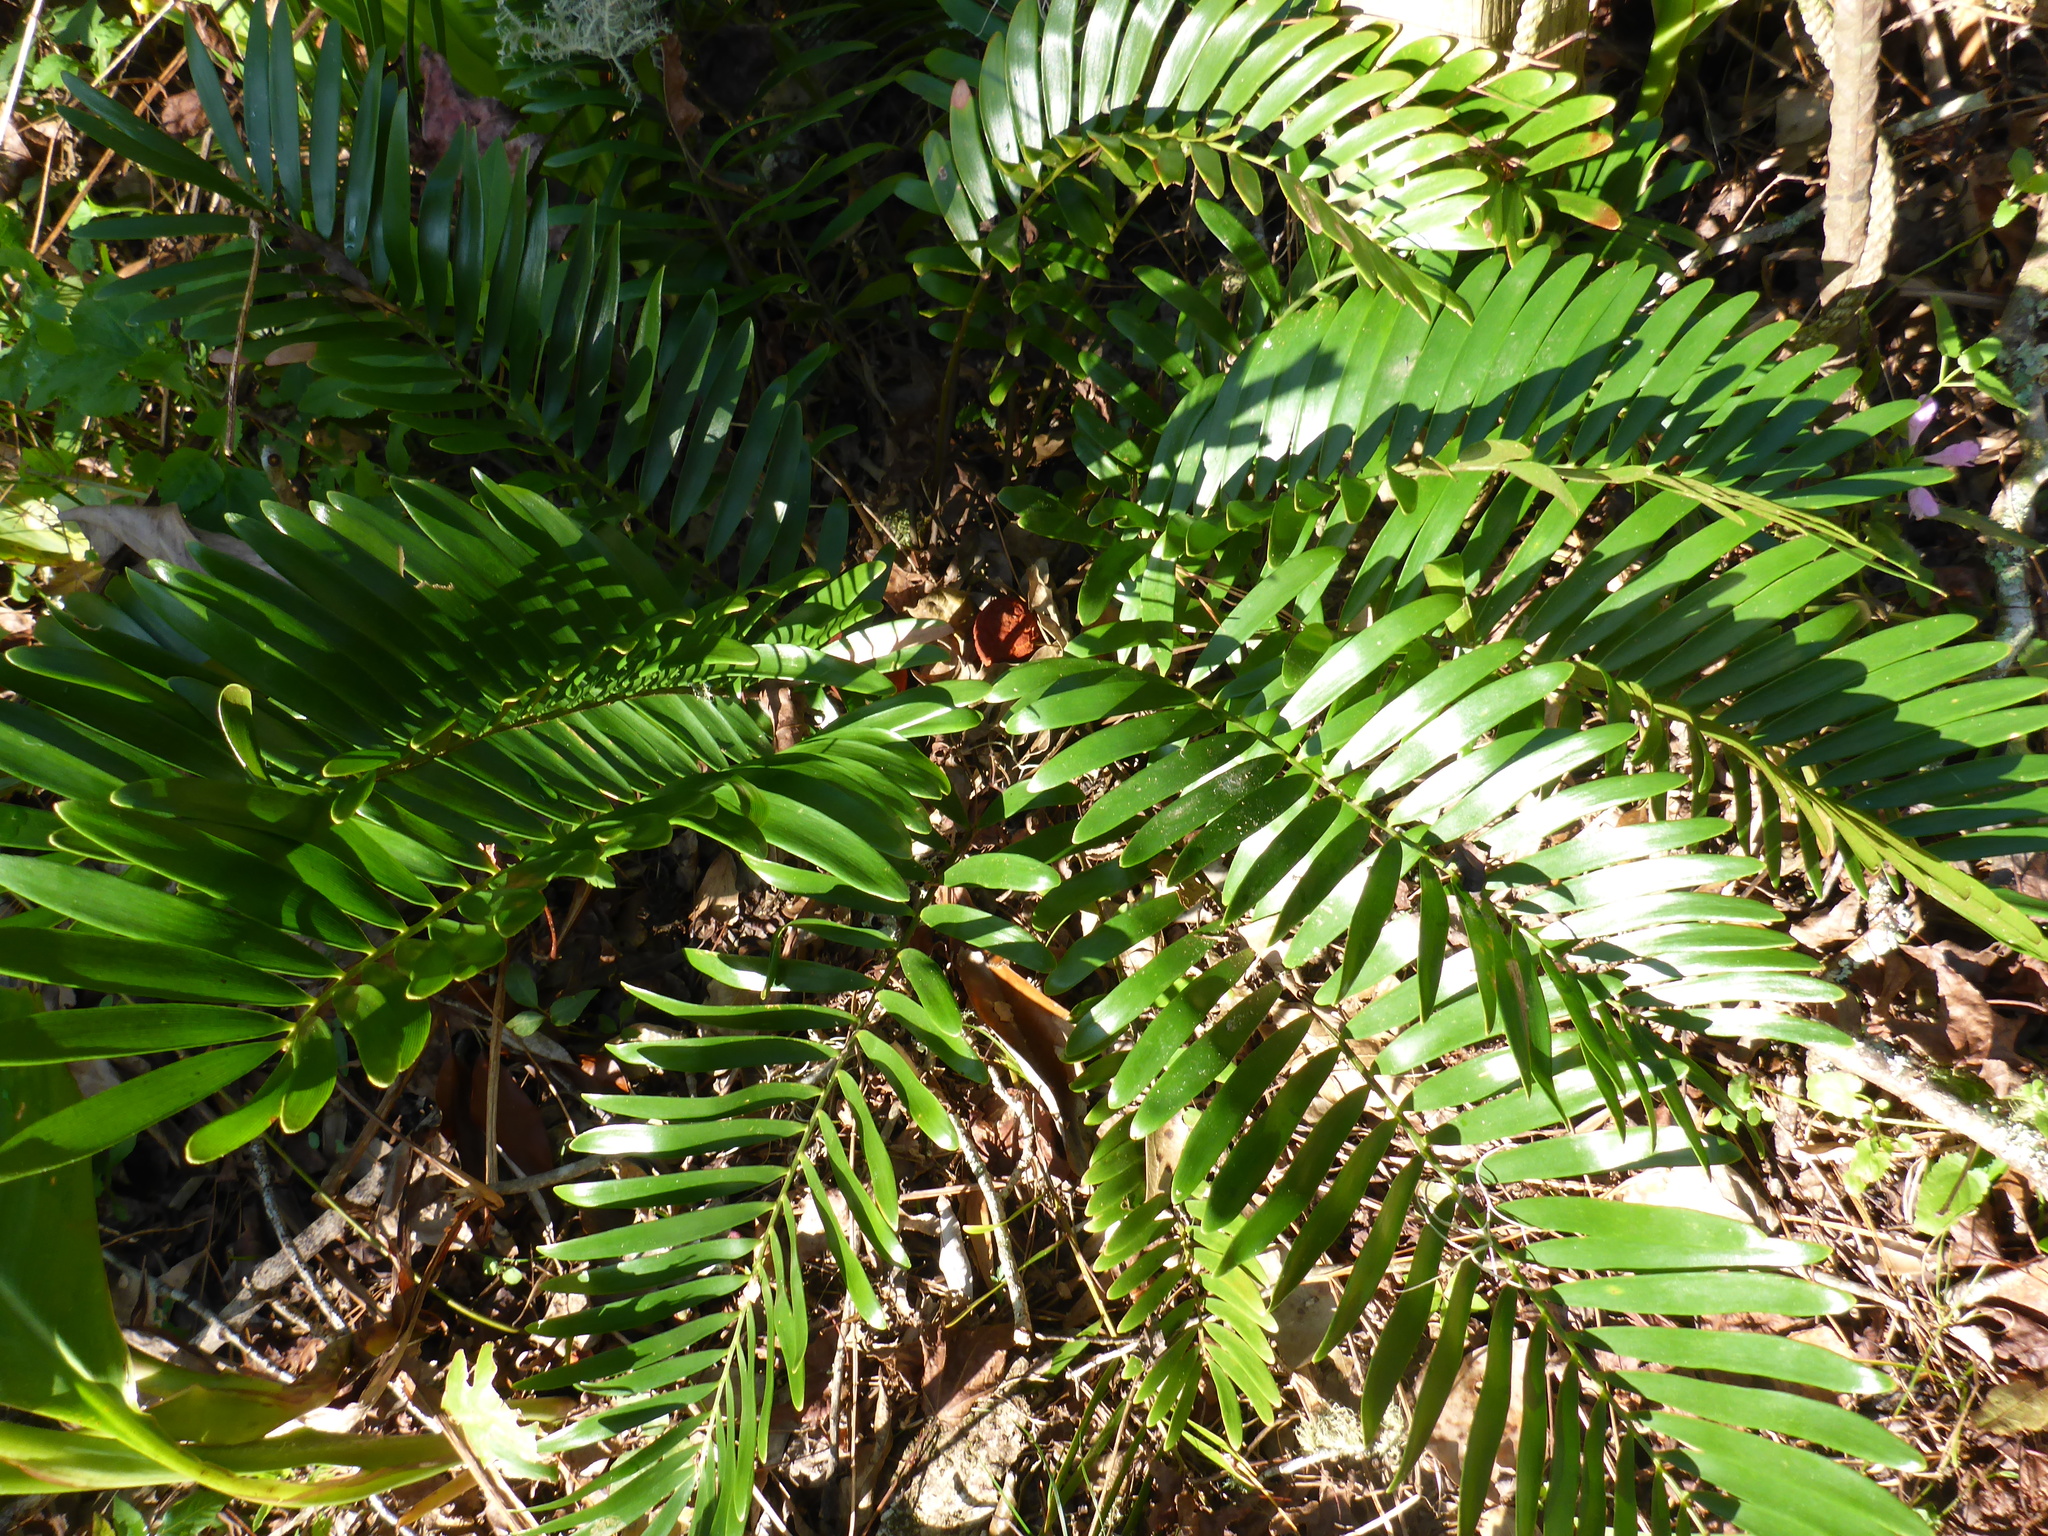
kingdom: Plantae
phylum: Tracheophyta
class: Cycadopsida
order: Cycadales
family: Zamiaceae
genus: Zamia
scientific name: Zamia integrifolia
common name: Florida arrowroot
